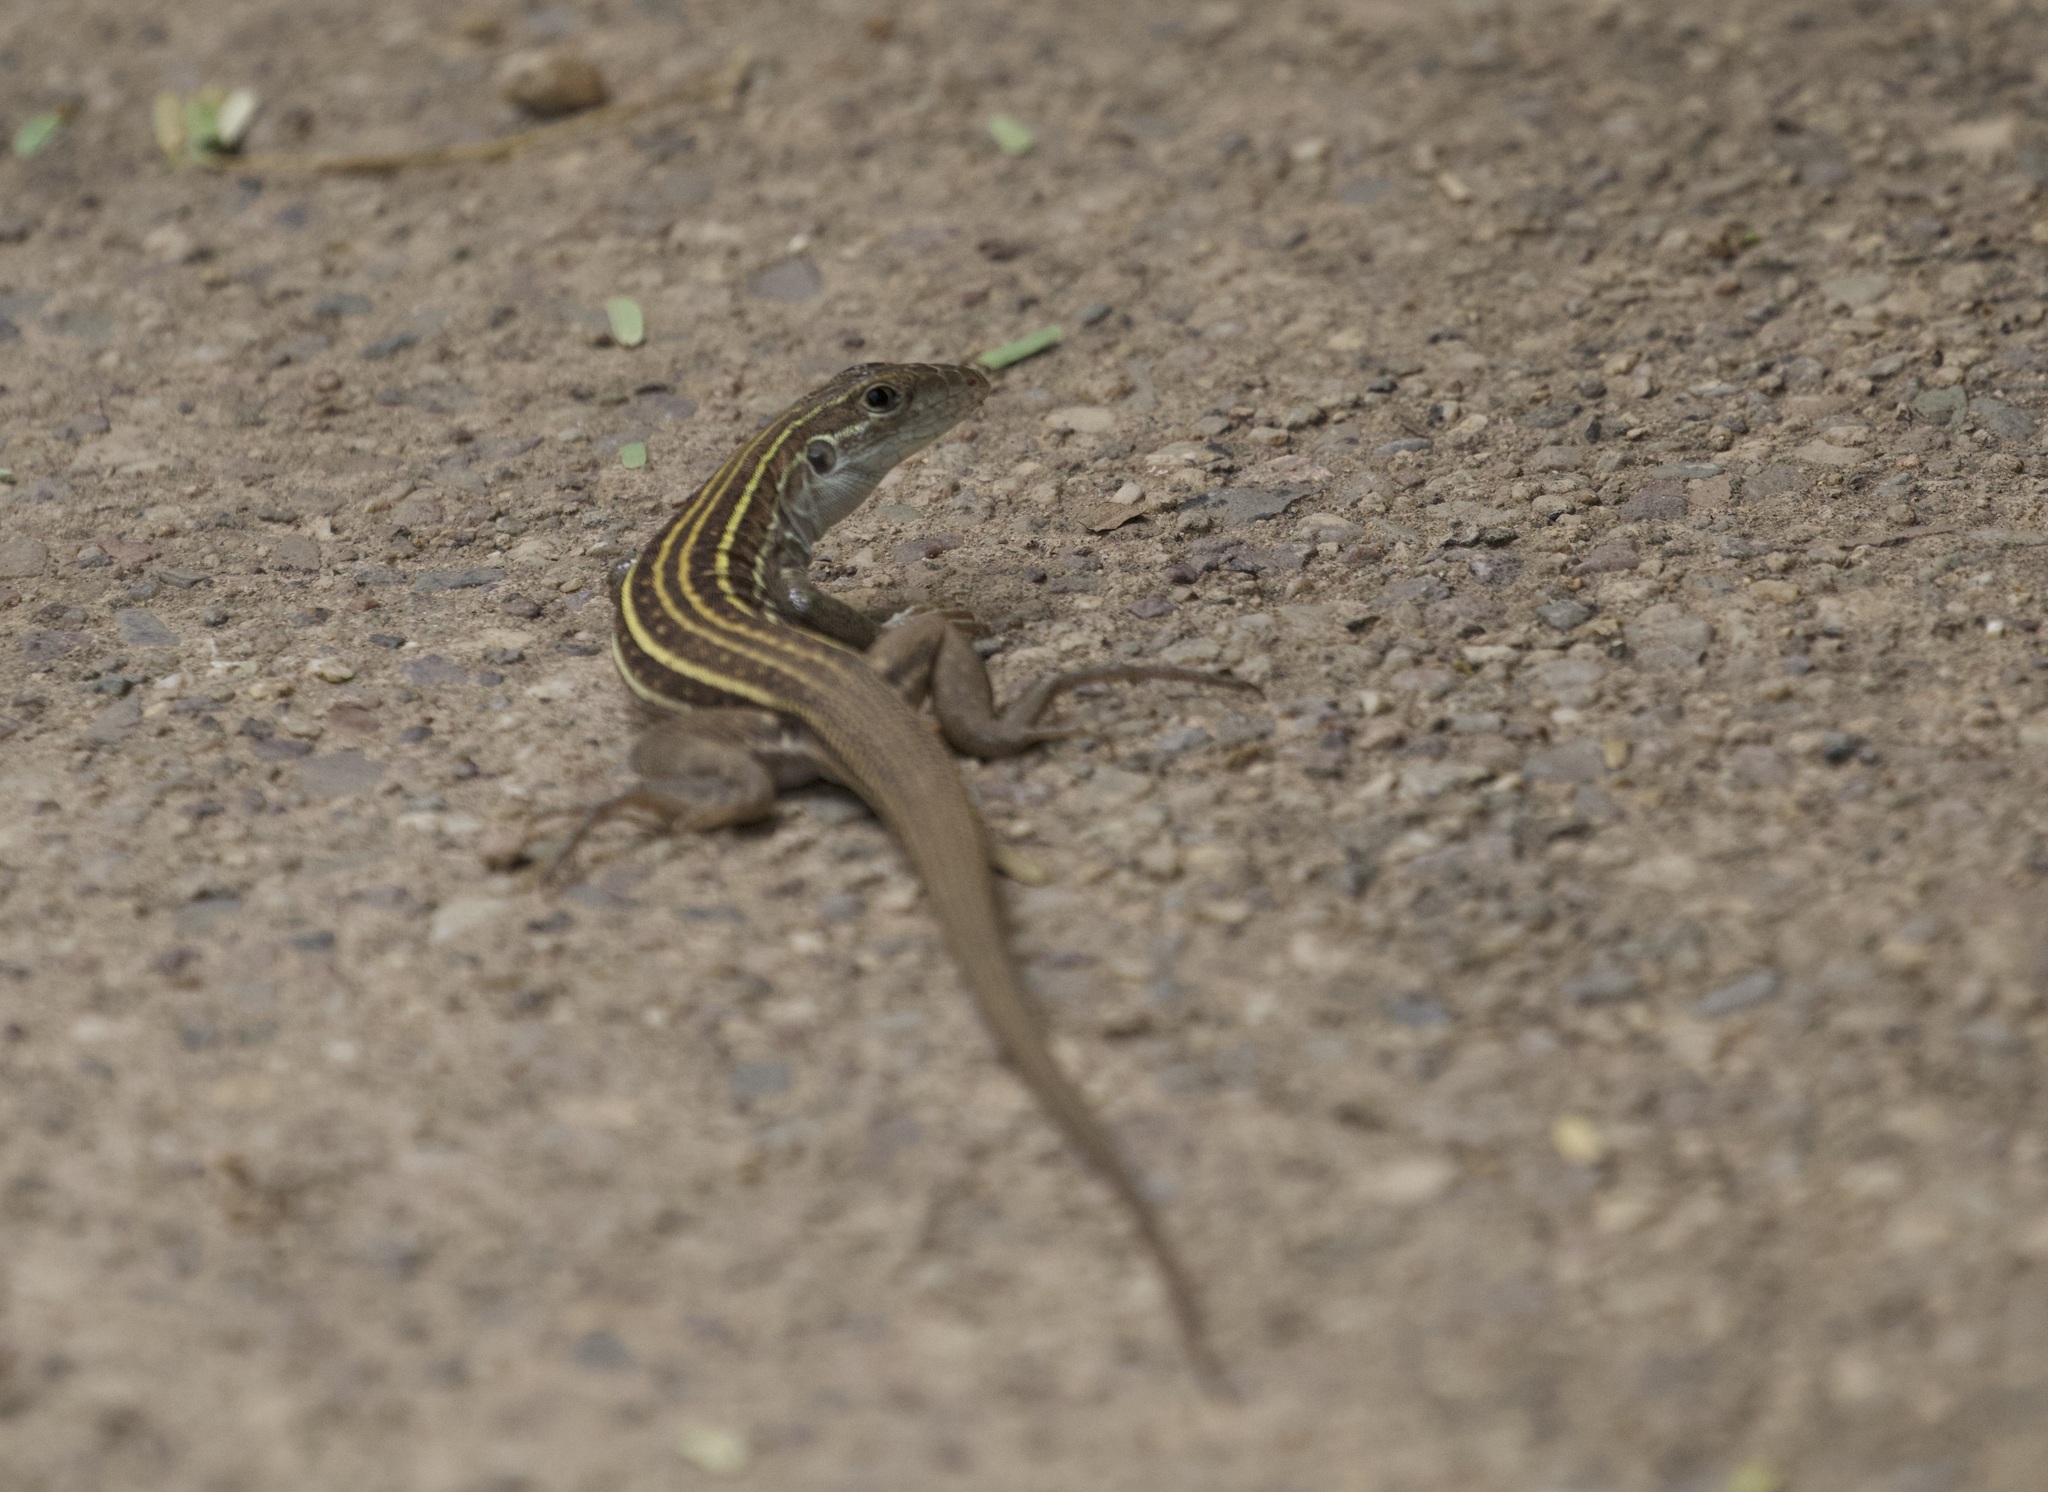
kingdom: Animalia
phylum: Chordata
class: Squamata
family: Teiidae
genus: Aspidoscelis
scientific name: Aspidoscelis sonorae
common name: Sonoran spotted whiptail
